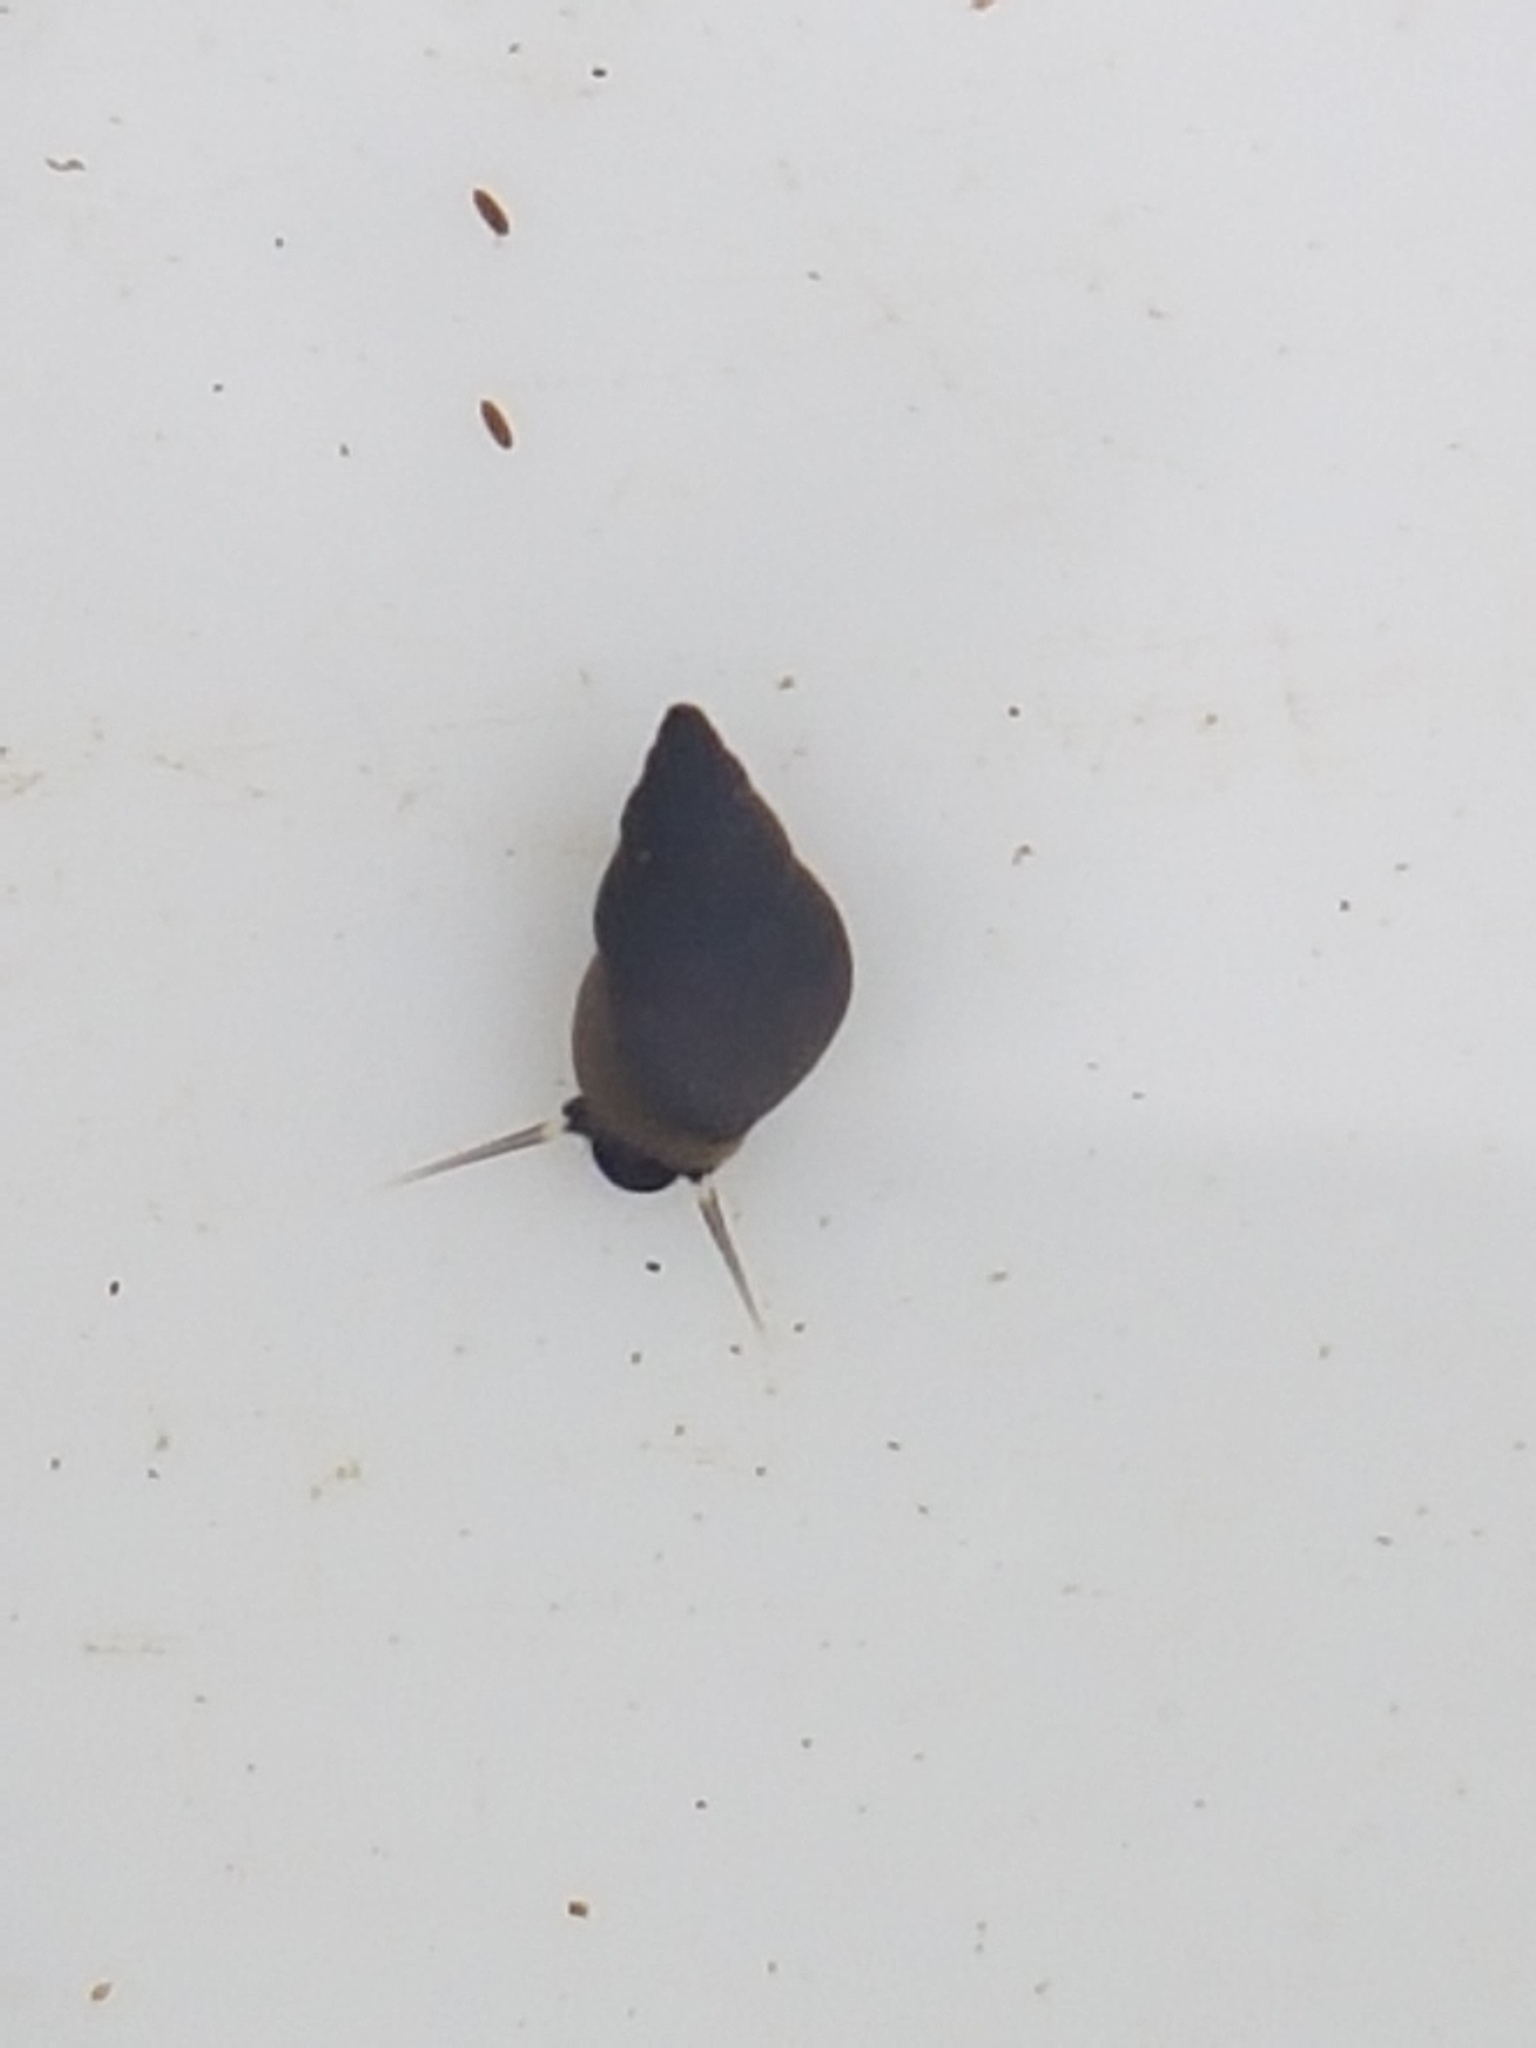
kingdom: Animalia
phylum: Mollusca
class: Gastropoda
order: Littorinimorpha
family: Tateidae
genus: Potamopyrgus
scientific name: Potamopyrgus antipodarum
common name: Jenkins' spire snail
